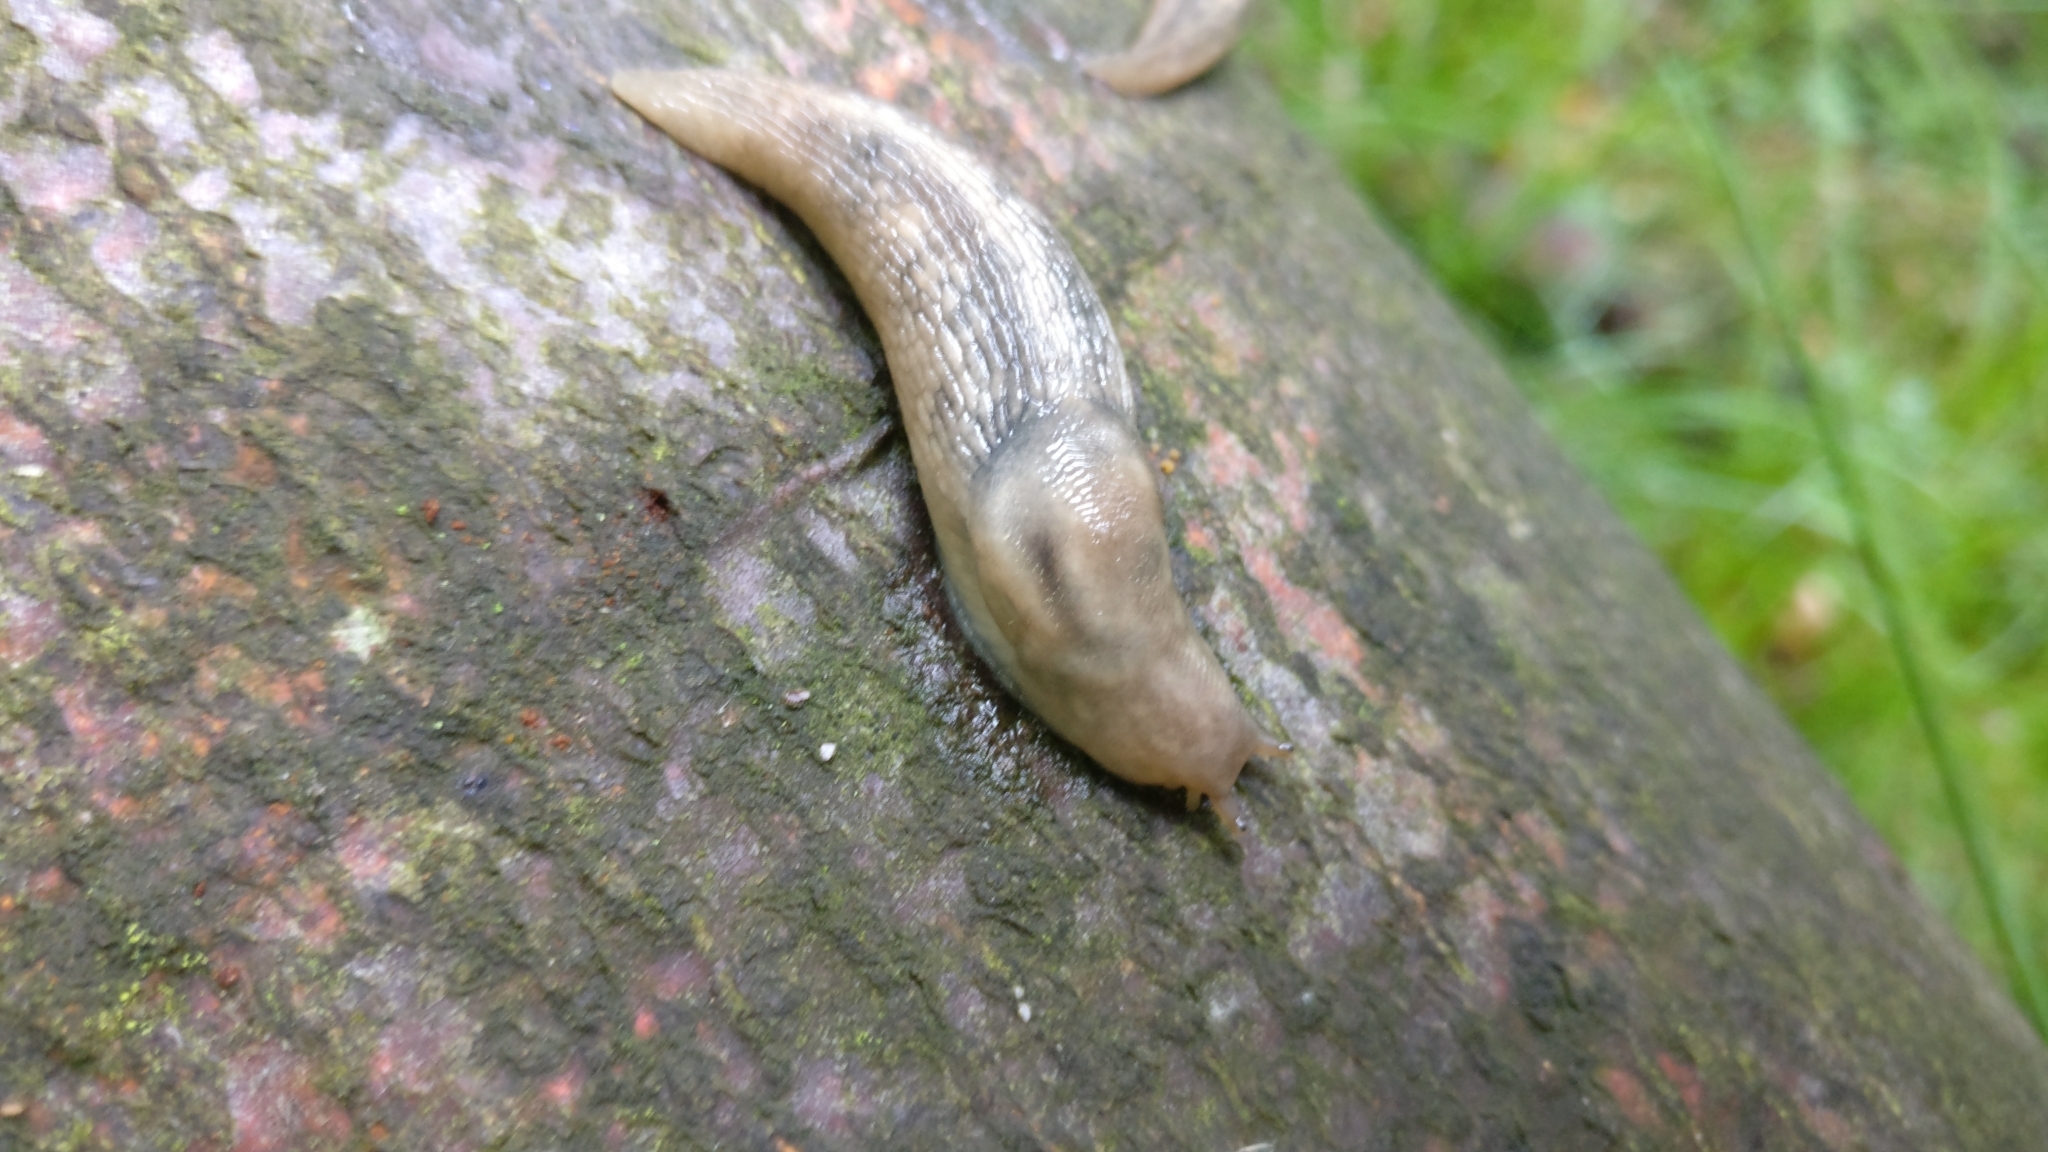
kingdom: Animalia
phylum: Mollusca
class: Gastropoda
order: Stylommatophora
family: Limacidae
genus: Lehmannia
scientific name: Lehmannia marginata
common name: Tree slug
